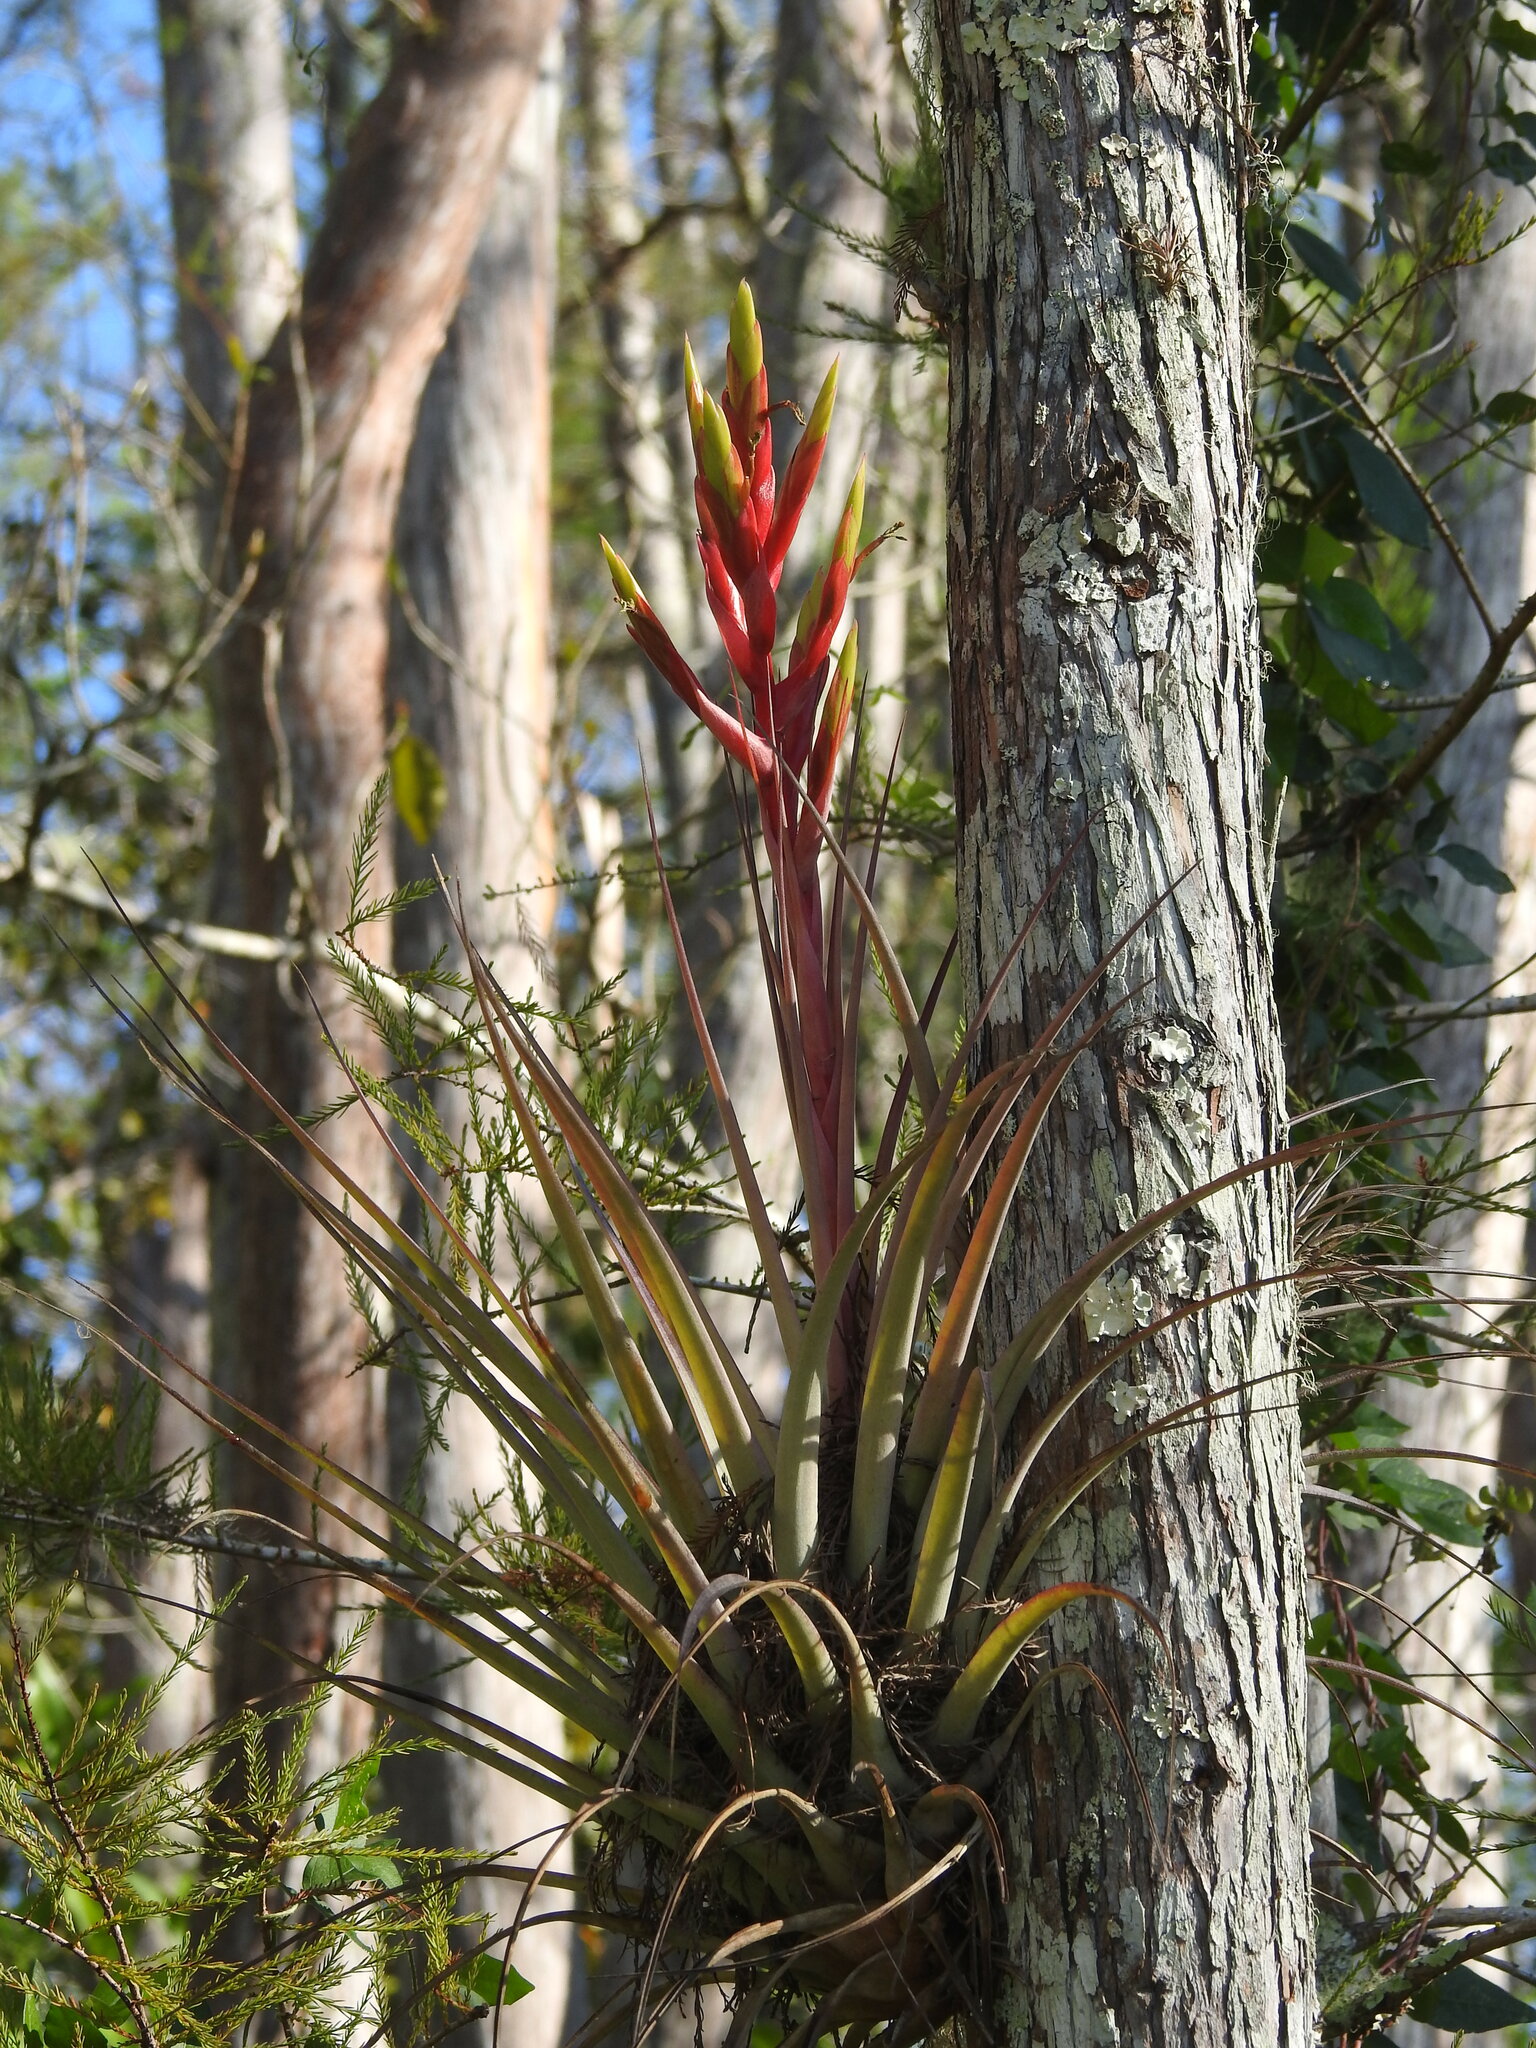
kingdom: Plantae
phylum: Tracheophyta
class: Liliopsida
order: Poales
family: Bromeliaceae
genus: Tillandsia
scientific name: Tillandsia fasciculata
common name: Giant airplant
